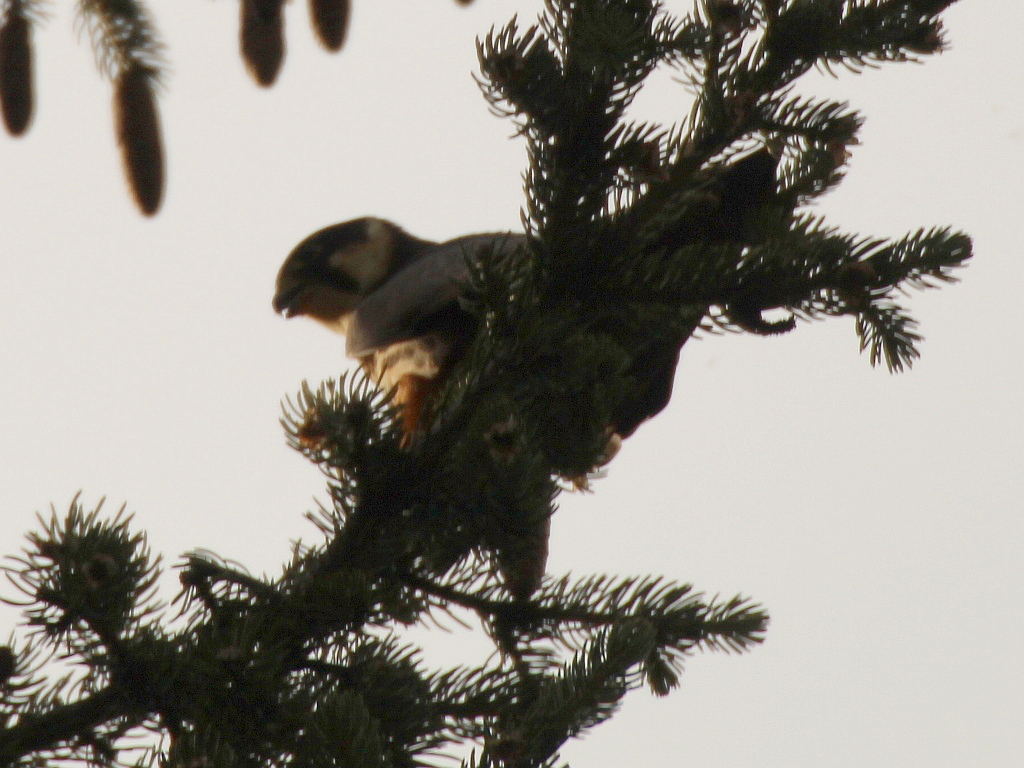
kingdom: Animalia
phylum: Chordata
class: Aves
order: Falconiformes
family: Falconidae
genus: Falco
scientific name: Falco subbuteo
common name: Eurasian hobby
